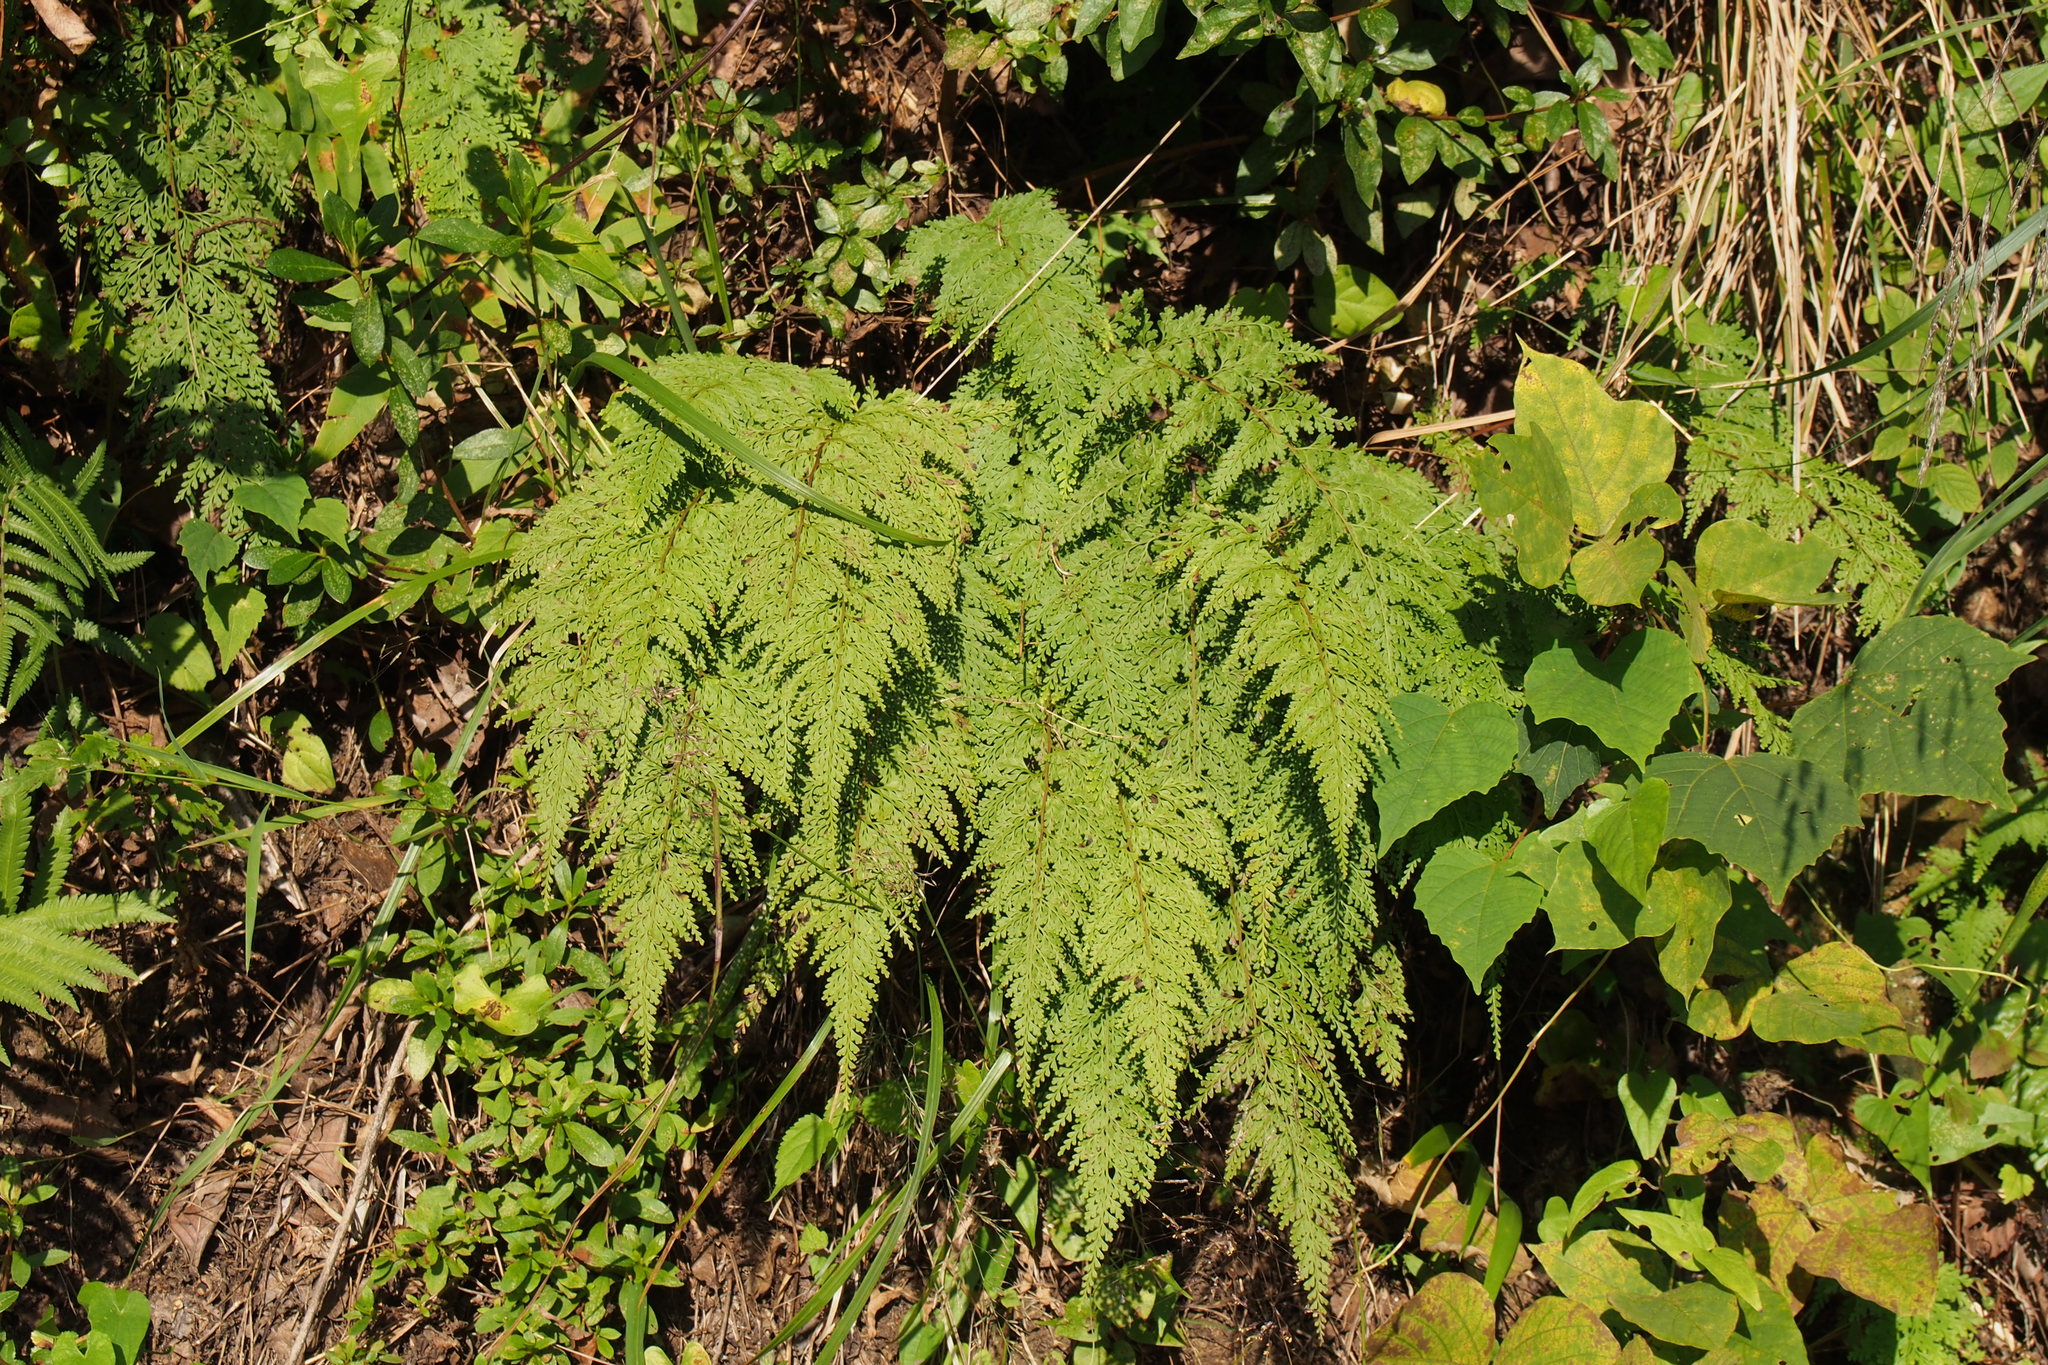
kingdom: Plantae
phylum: Tracheophyta
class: Polypodiopsida
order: Polypodiales
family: Lindsaeaceae
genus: Odontosoria
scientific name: Odontosoria chinensis
